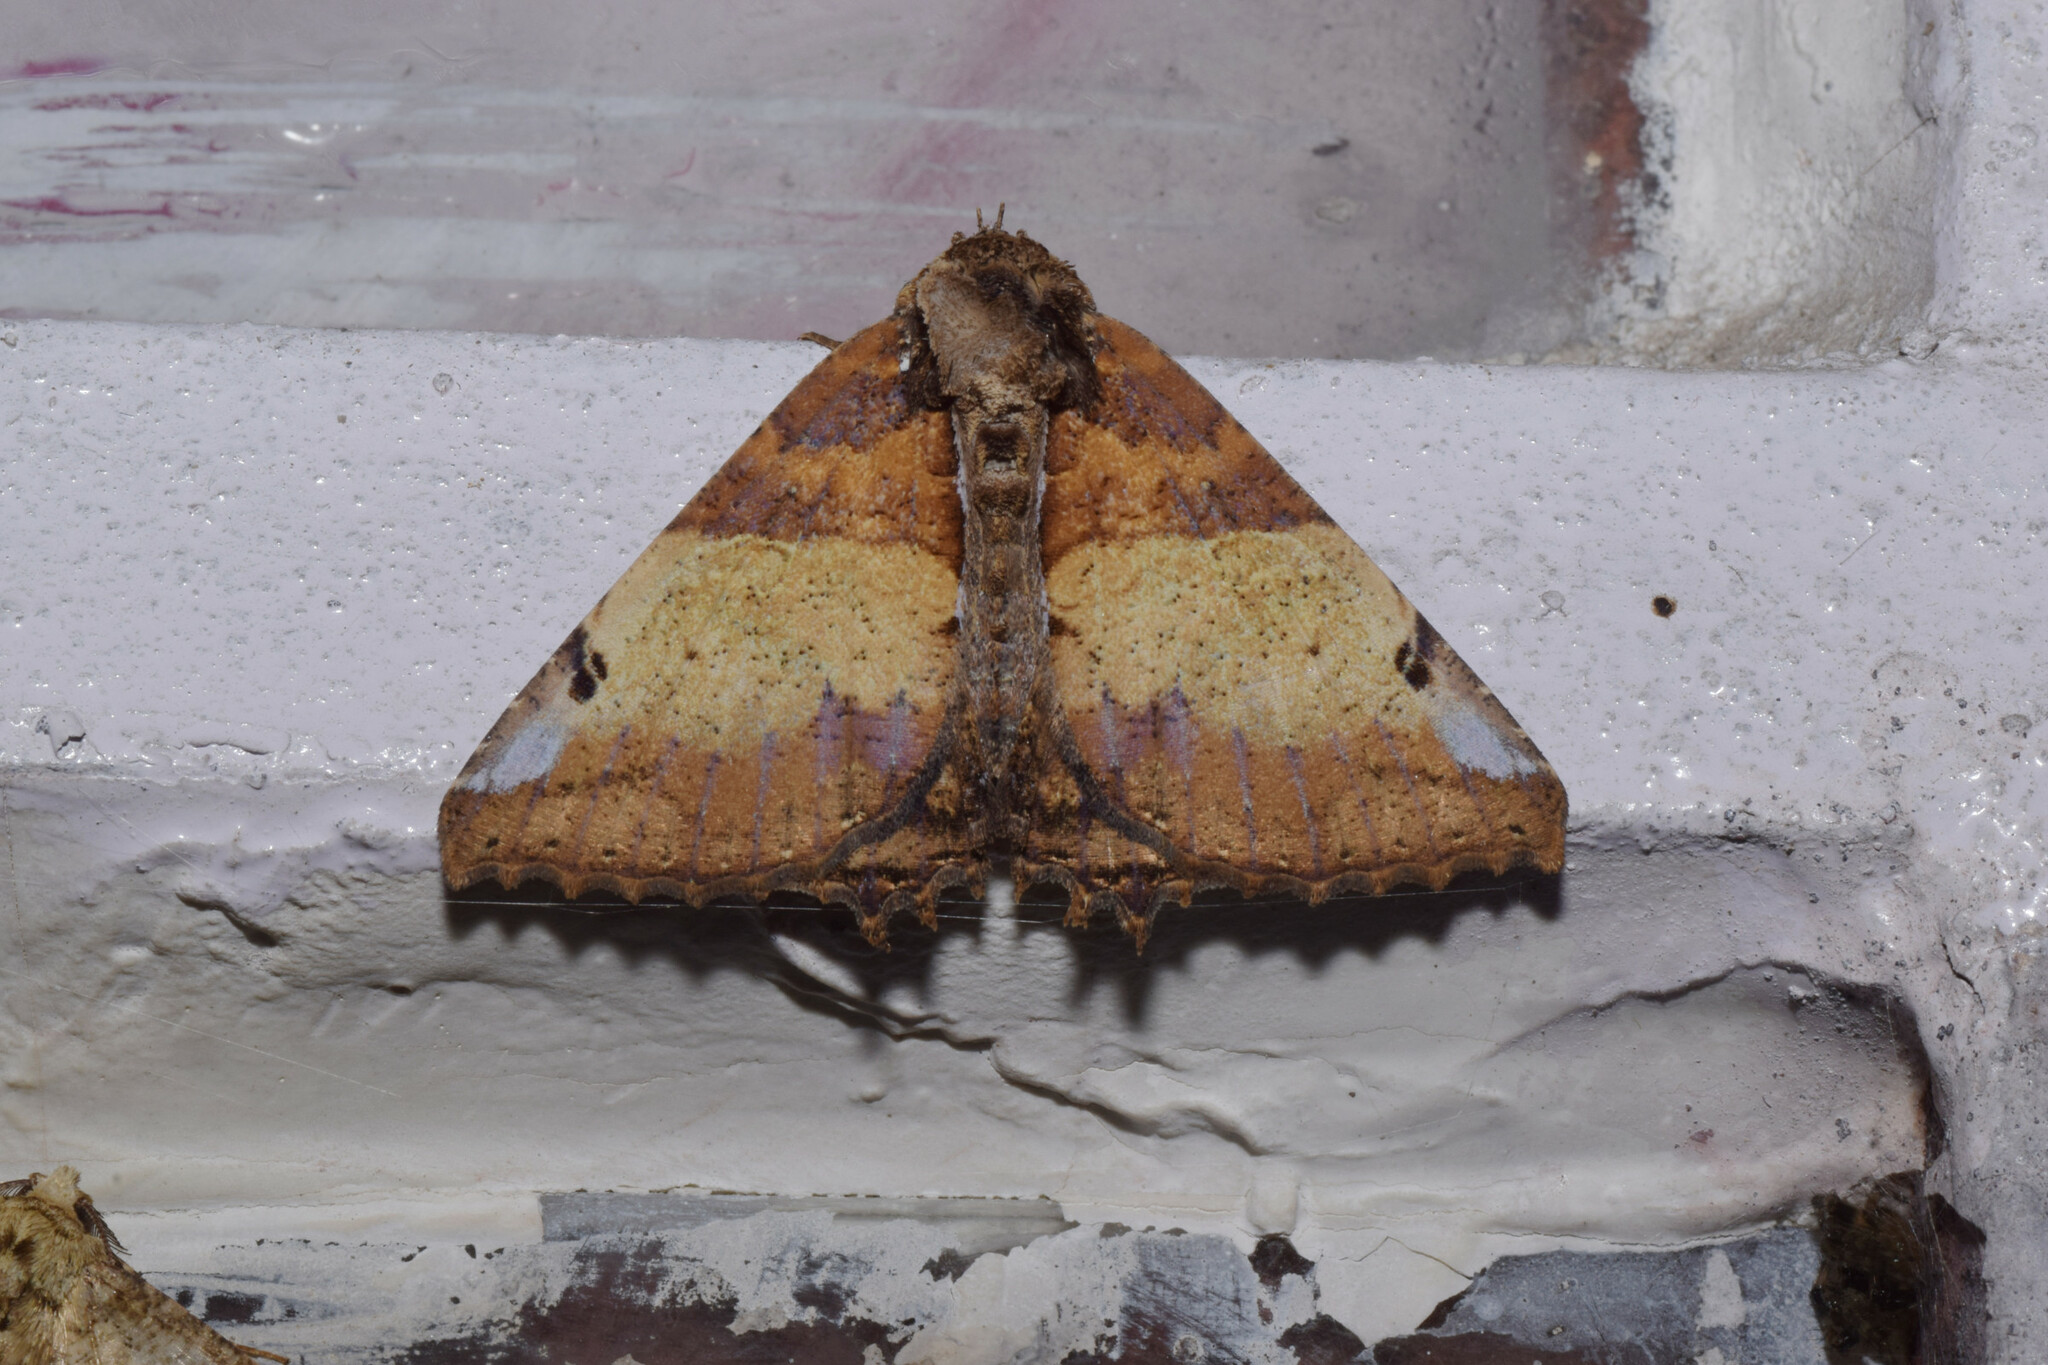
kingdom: Animalia
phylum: Arthropoda
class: Insecta
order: Lepidoptera
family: Erebidae
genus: Daddala
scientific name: Daddala brevicauda
